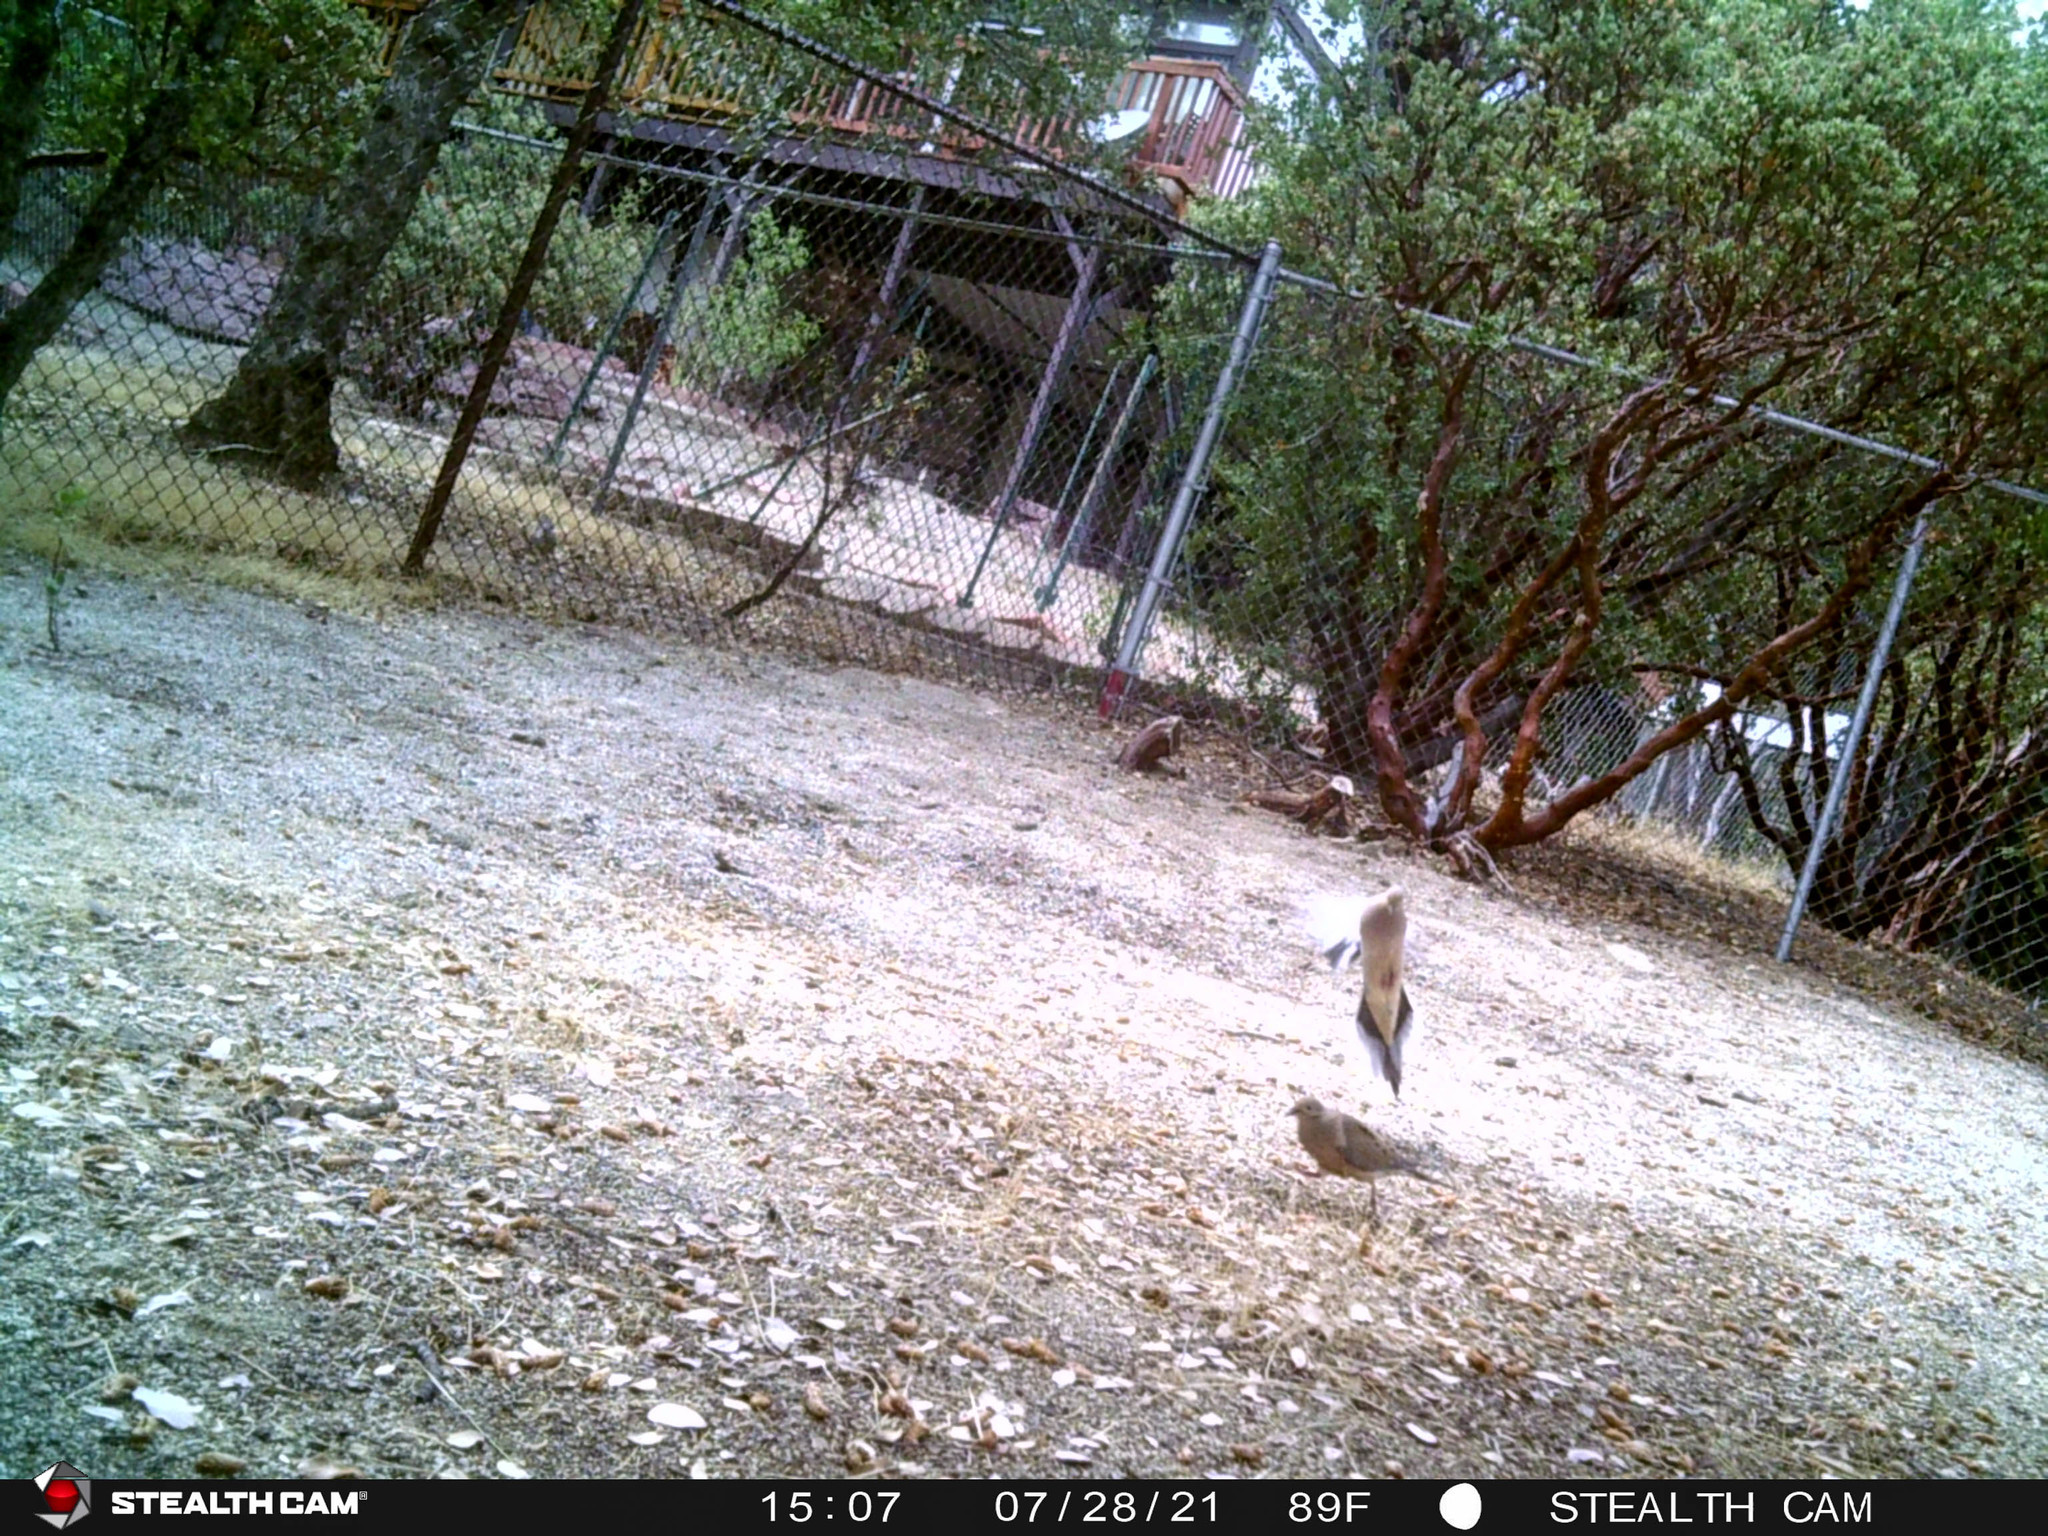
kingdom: Animalia
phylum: Chordata
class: Aves
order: Columbiformes
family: Columbidae
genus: Zenaida
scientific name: Zenaida macroura
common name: Mourning dove
